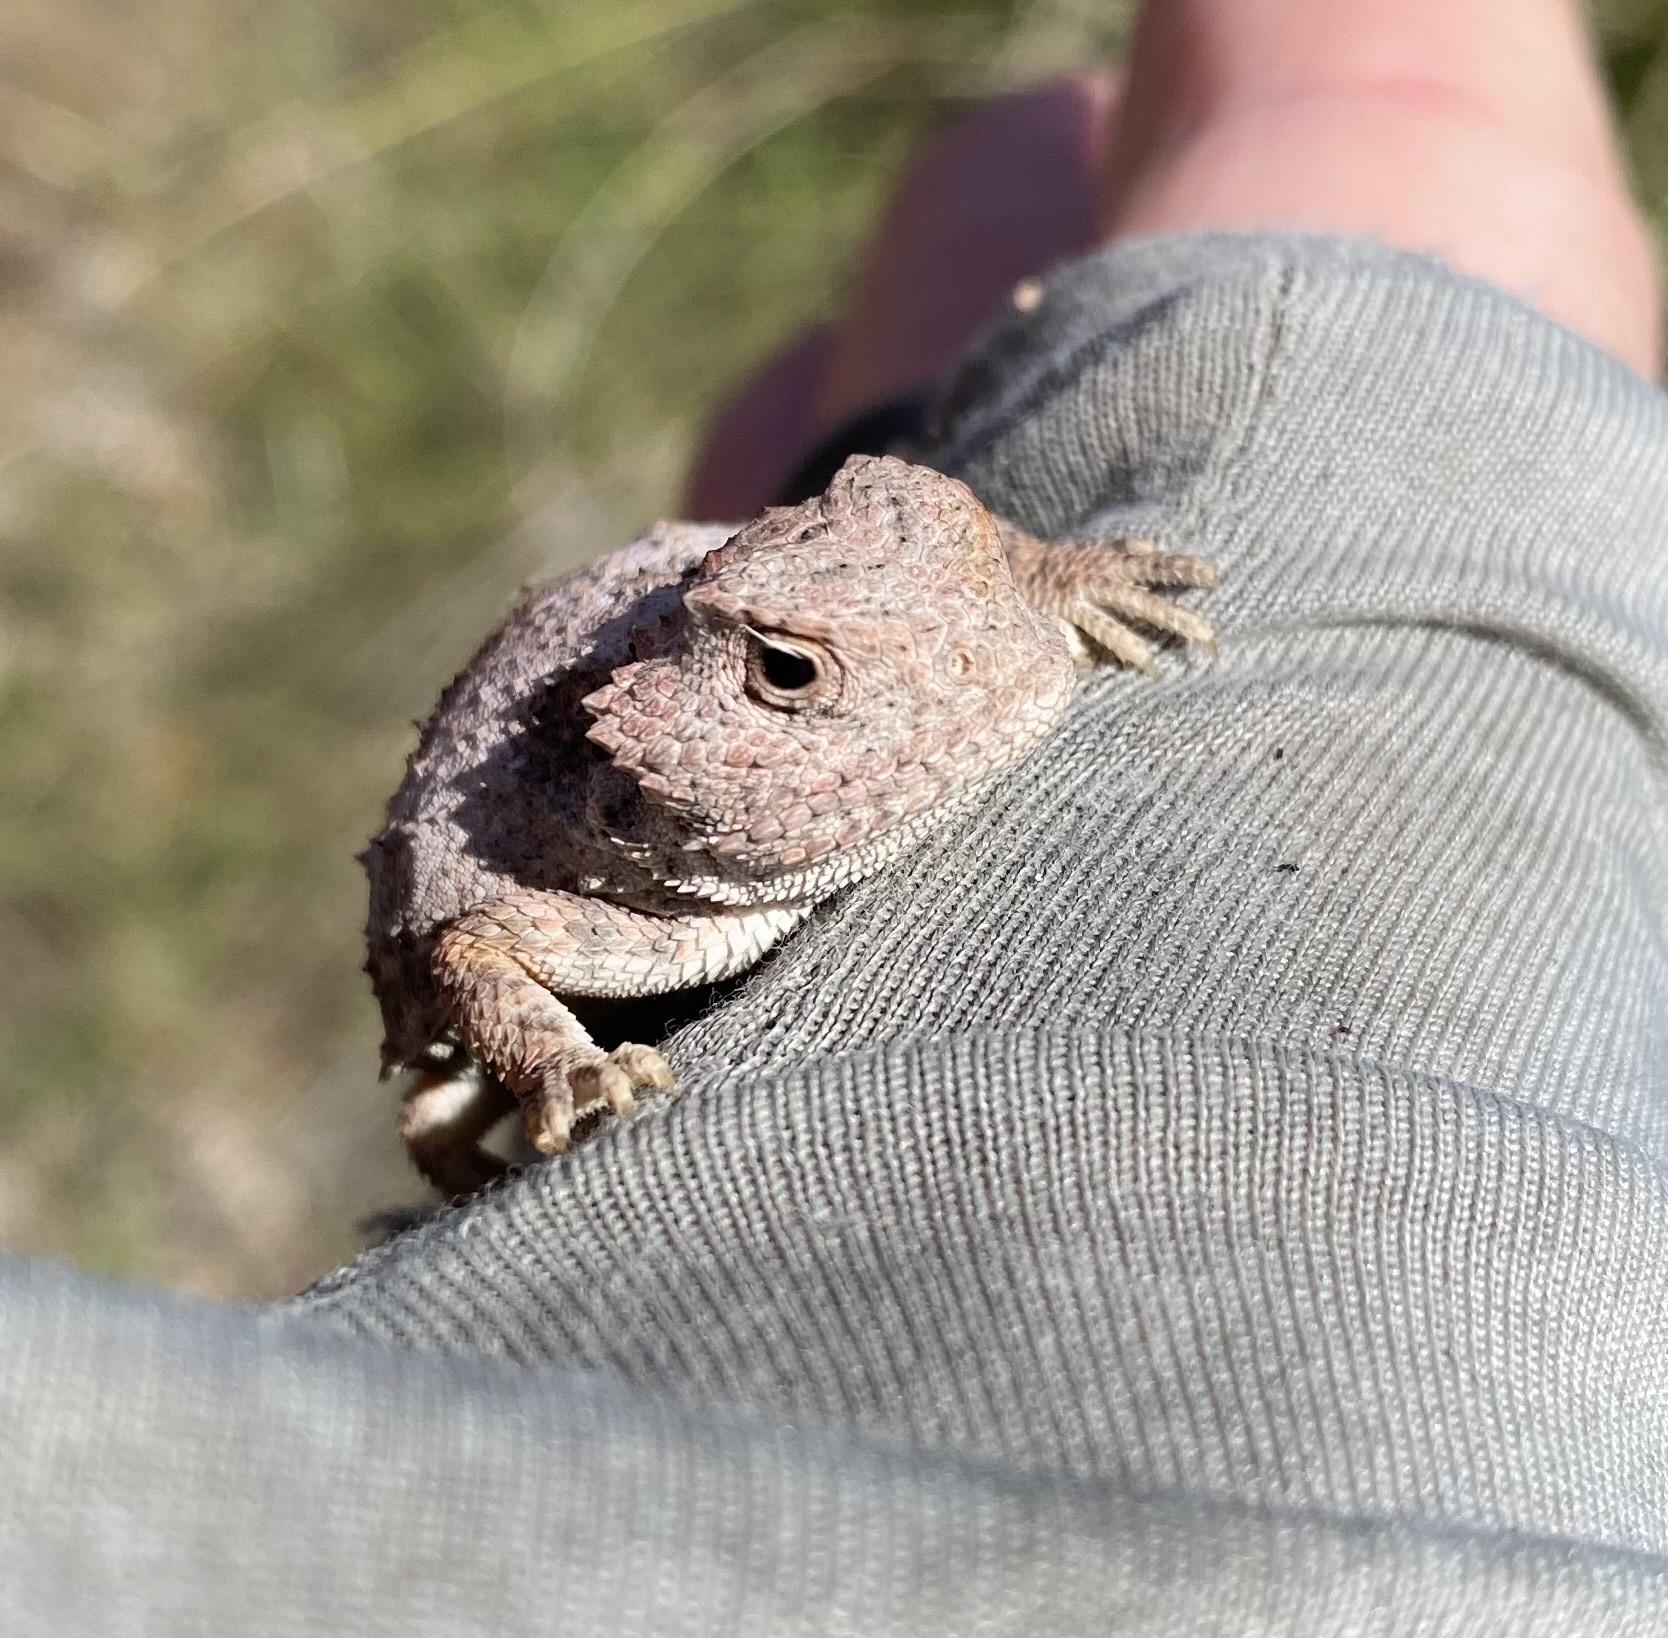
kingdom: Animalia
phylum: Chordata
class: Squamata
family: Phrynosomatidae
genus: Phrynosoma
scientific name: Phrynosoma hernandesi
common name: Greater short-horned lizard
